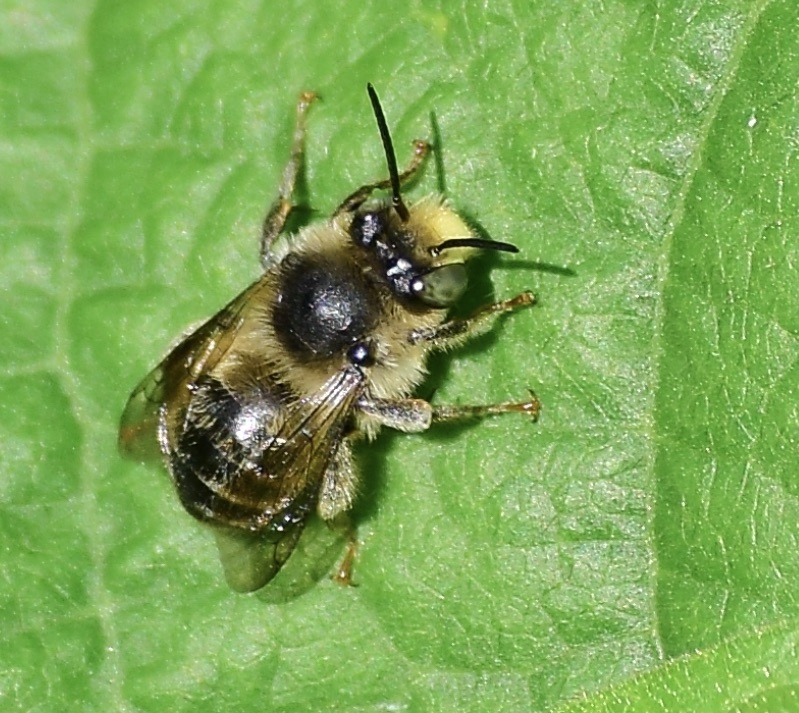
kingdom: Animalia
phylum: Arthropoda
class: Insecta
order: Hymenoptera
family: Apidae
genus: Anthophora
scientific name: Anthophora terminalis
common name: Orange-tipped wood-digger bee
